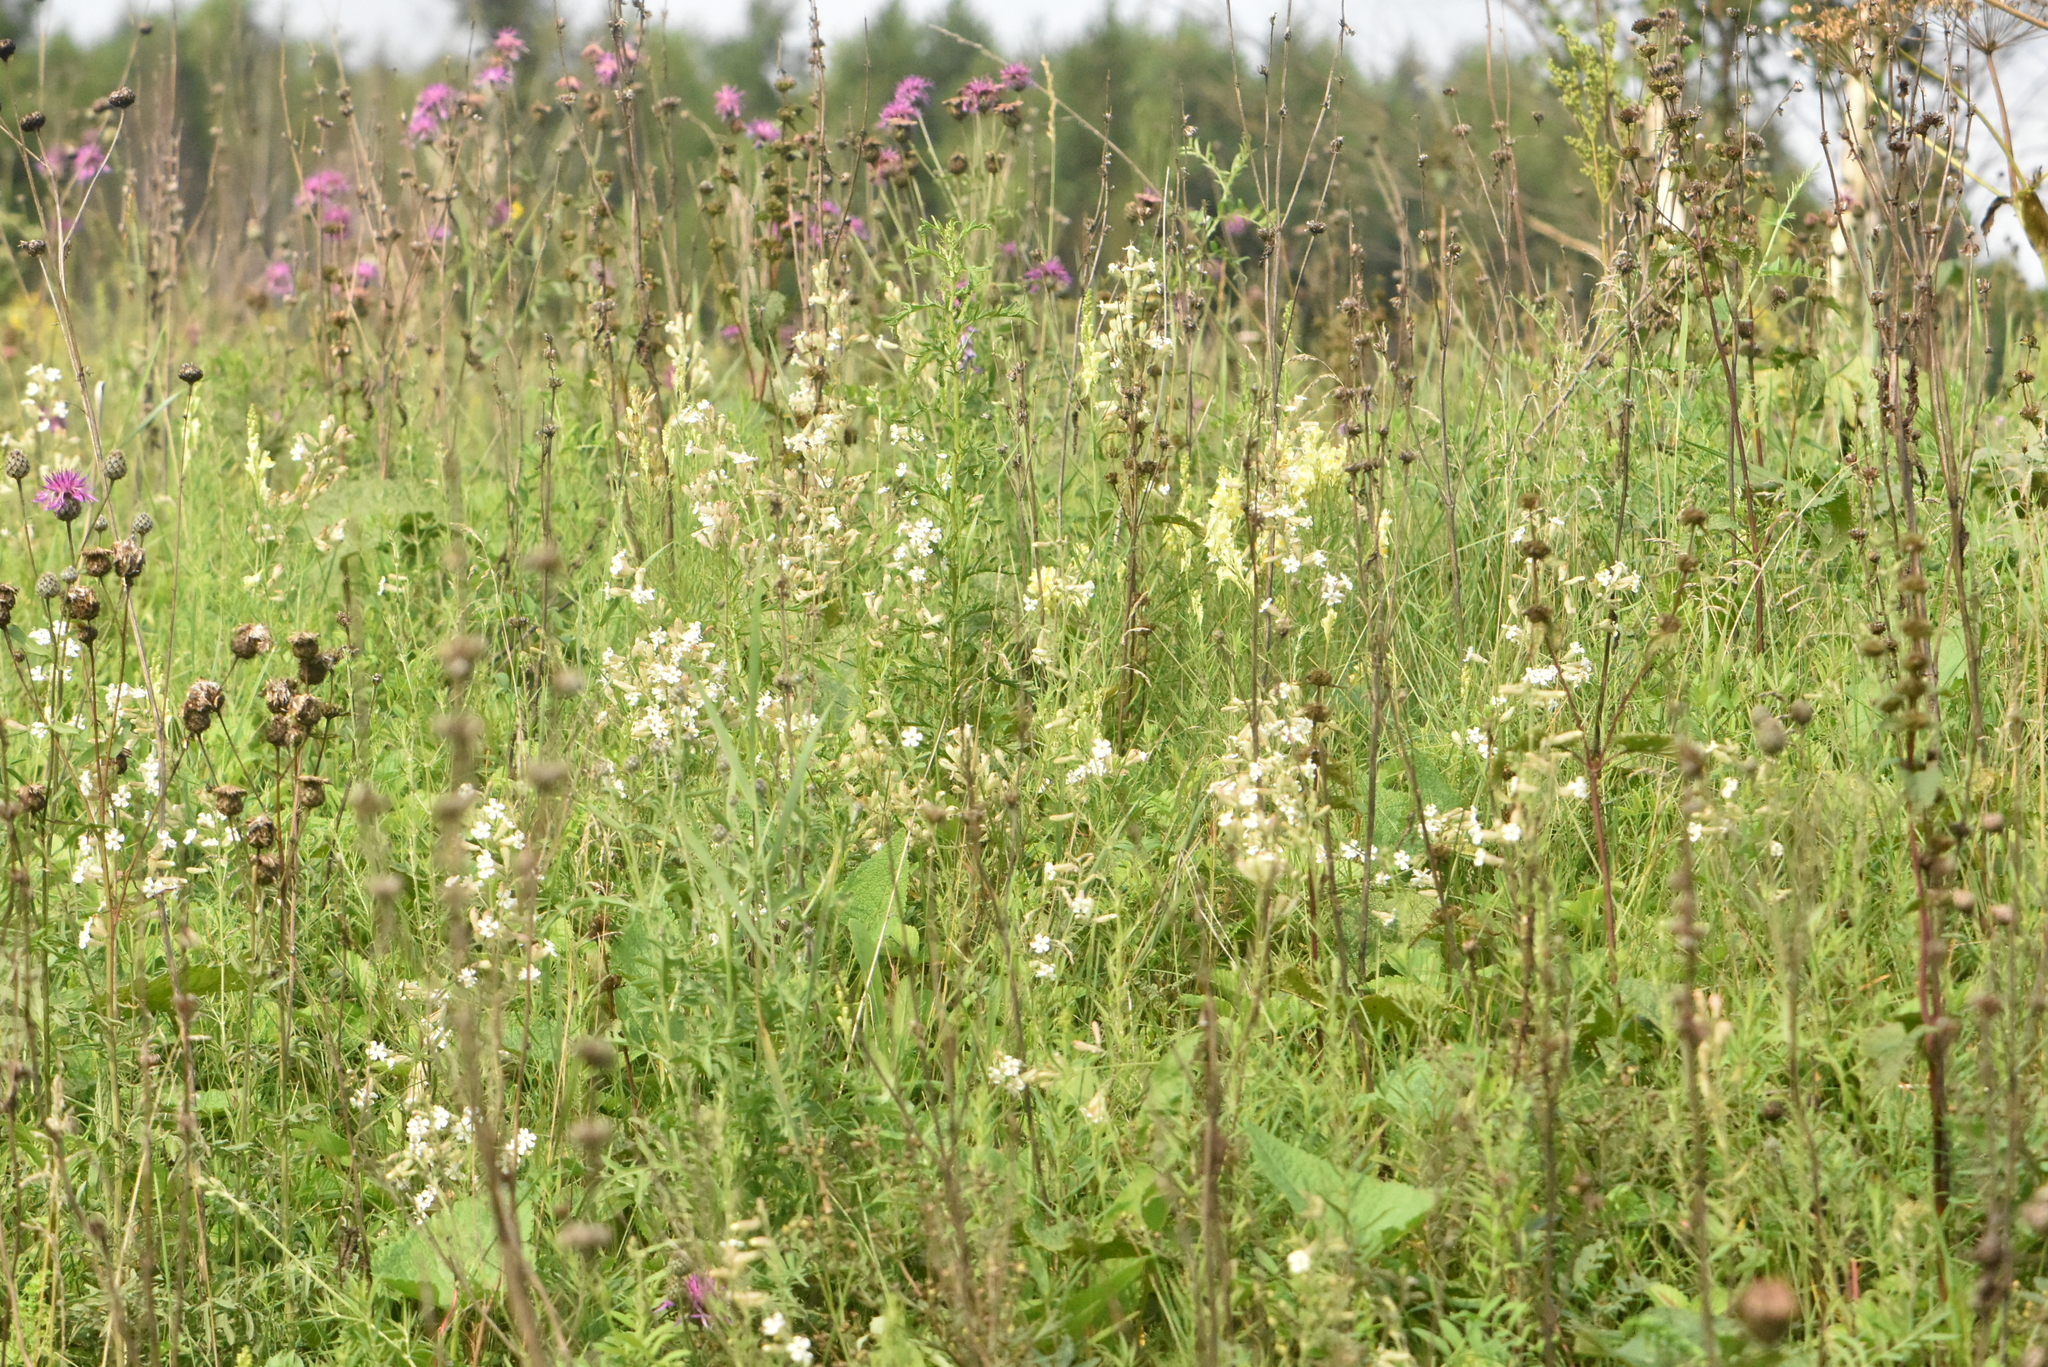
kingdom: Plantae
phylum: Tracheophyta
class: Magnoliopsida
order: Caryophyllales
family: Caryophyllaceae
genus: Silene
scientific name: Silene amoena
